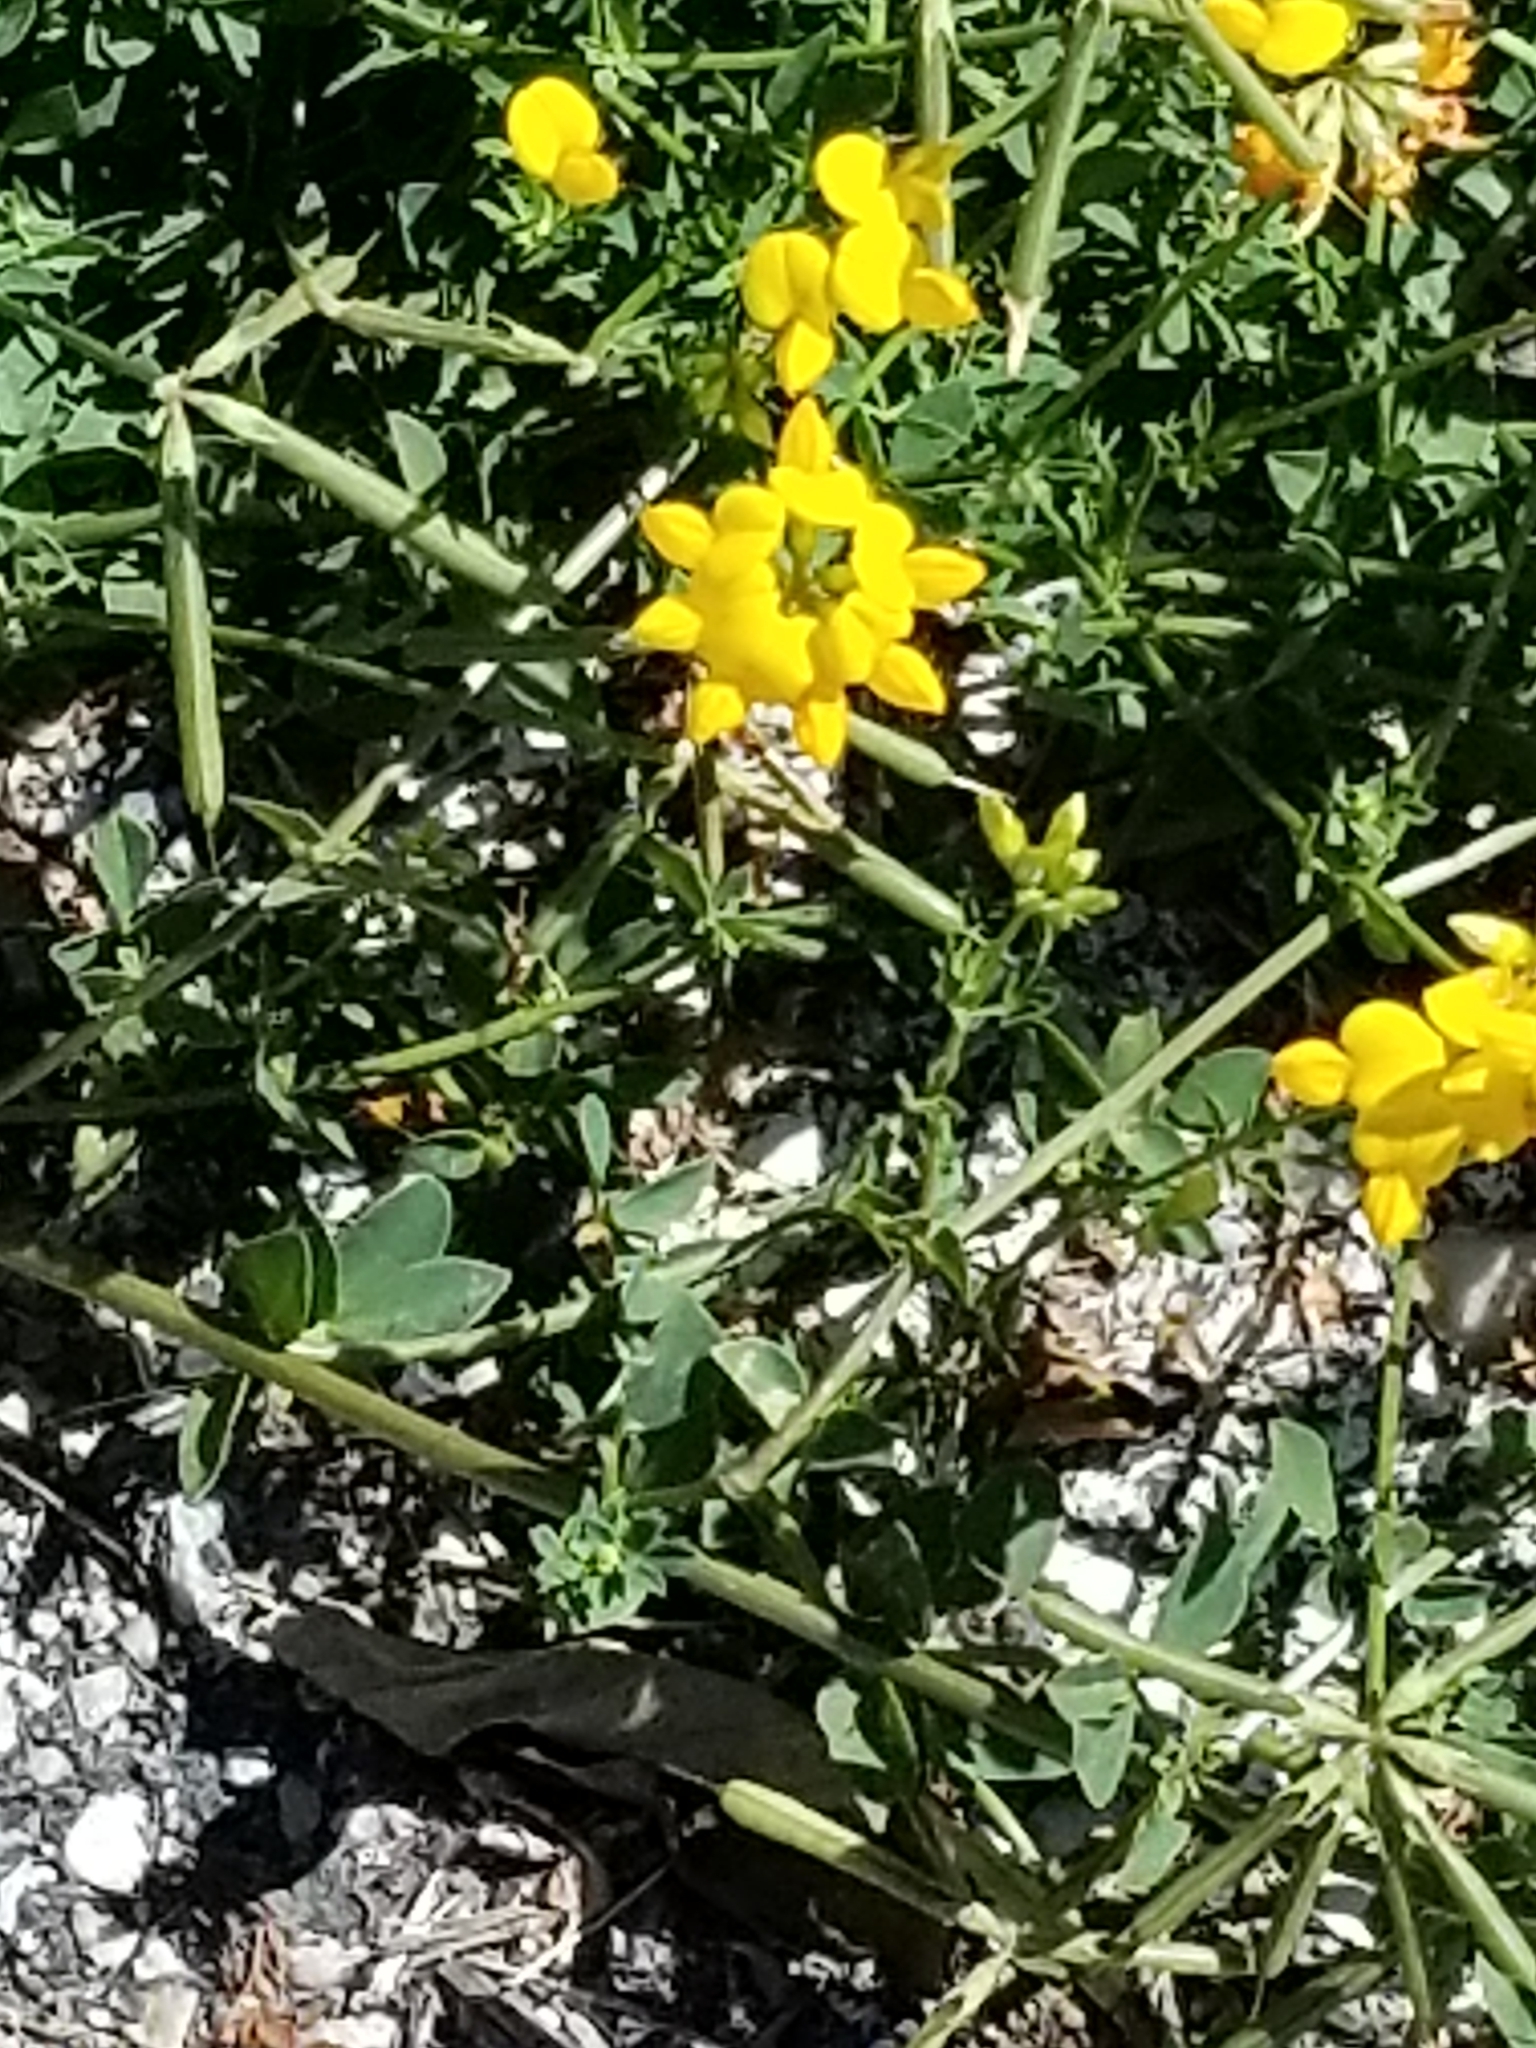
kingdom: Plantae
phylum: Tracheophyta
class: Magnoliopsida
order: Fabales
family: Fabaceae
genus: Lotus
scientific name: Lotus corniculatus
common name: Common bird's-foot-trefoil
